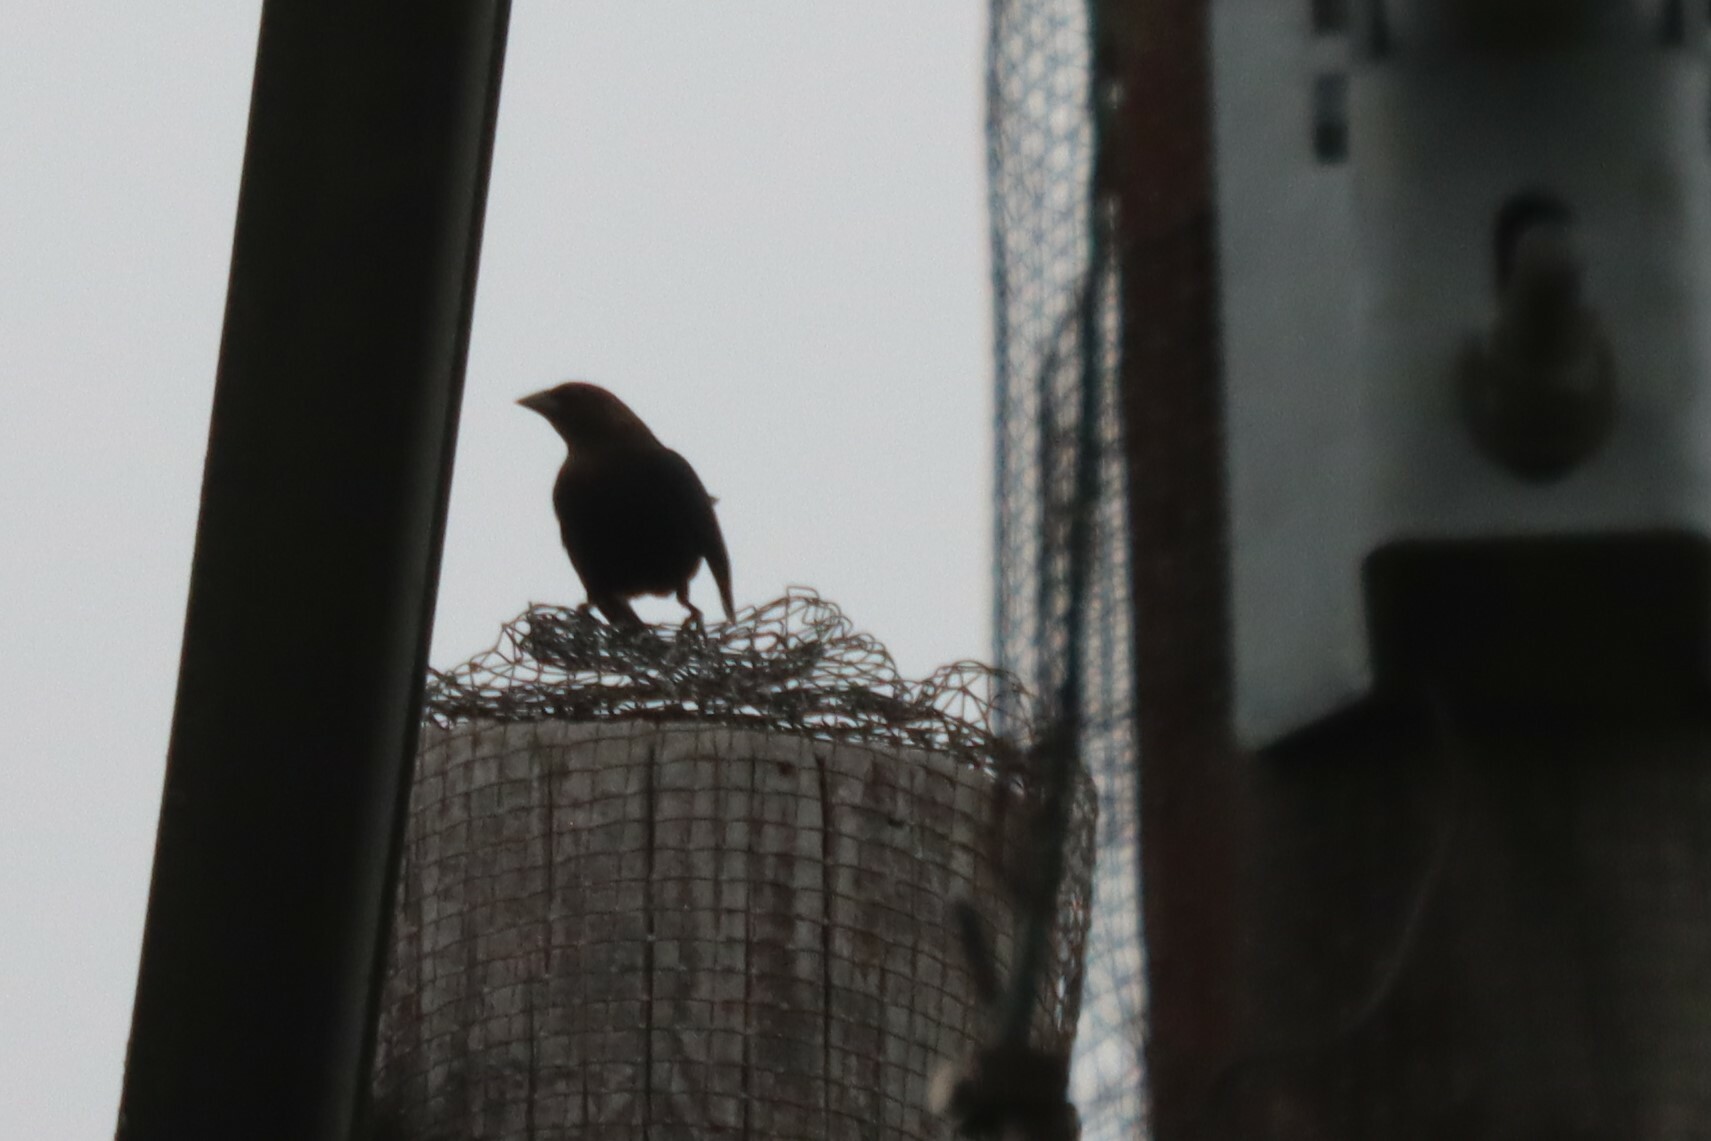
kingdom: Animalia
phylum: Chordata
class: Aves
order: Passeriformes
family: Icteridae
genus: Molothrus
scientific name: Molothrus ater
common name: Brown-headed cowbird
